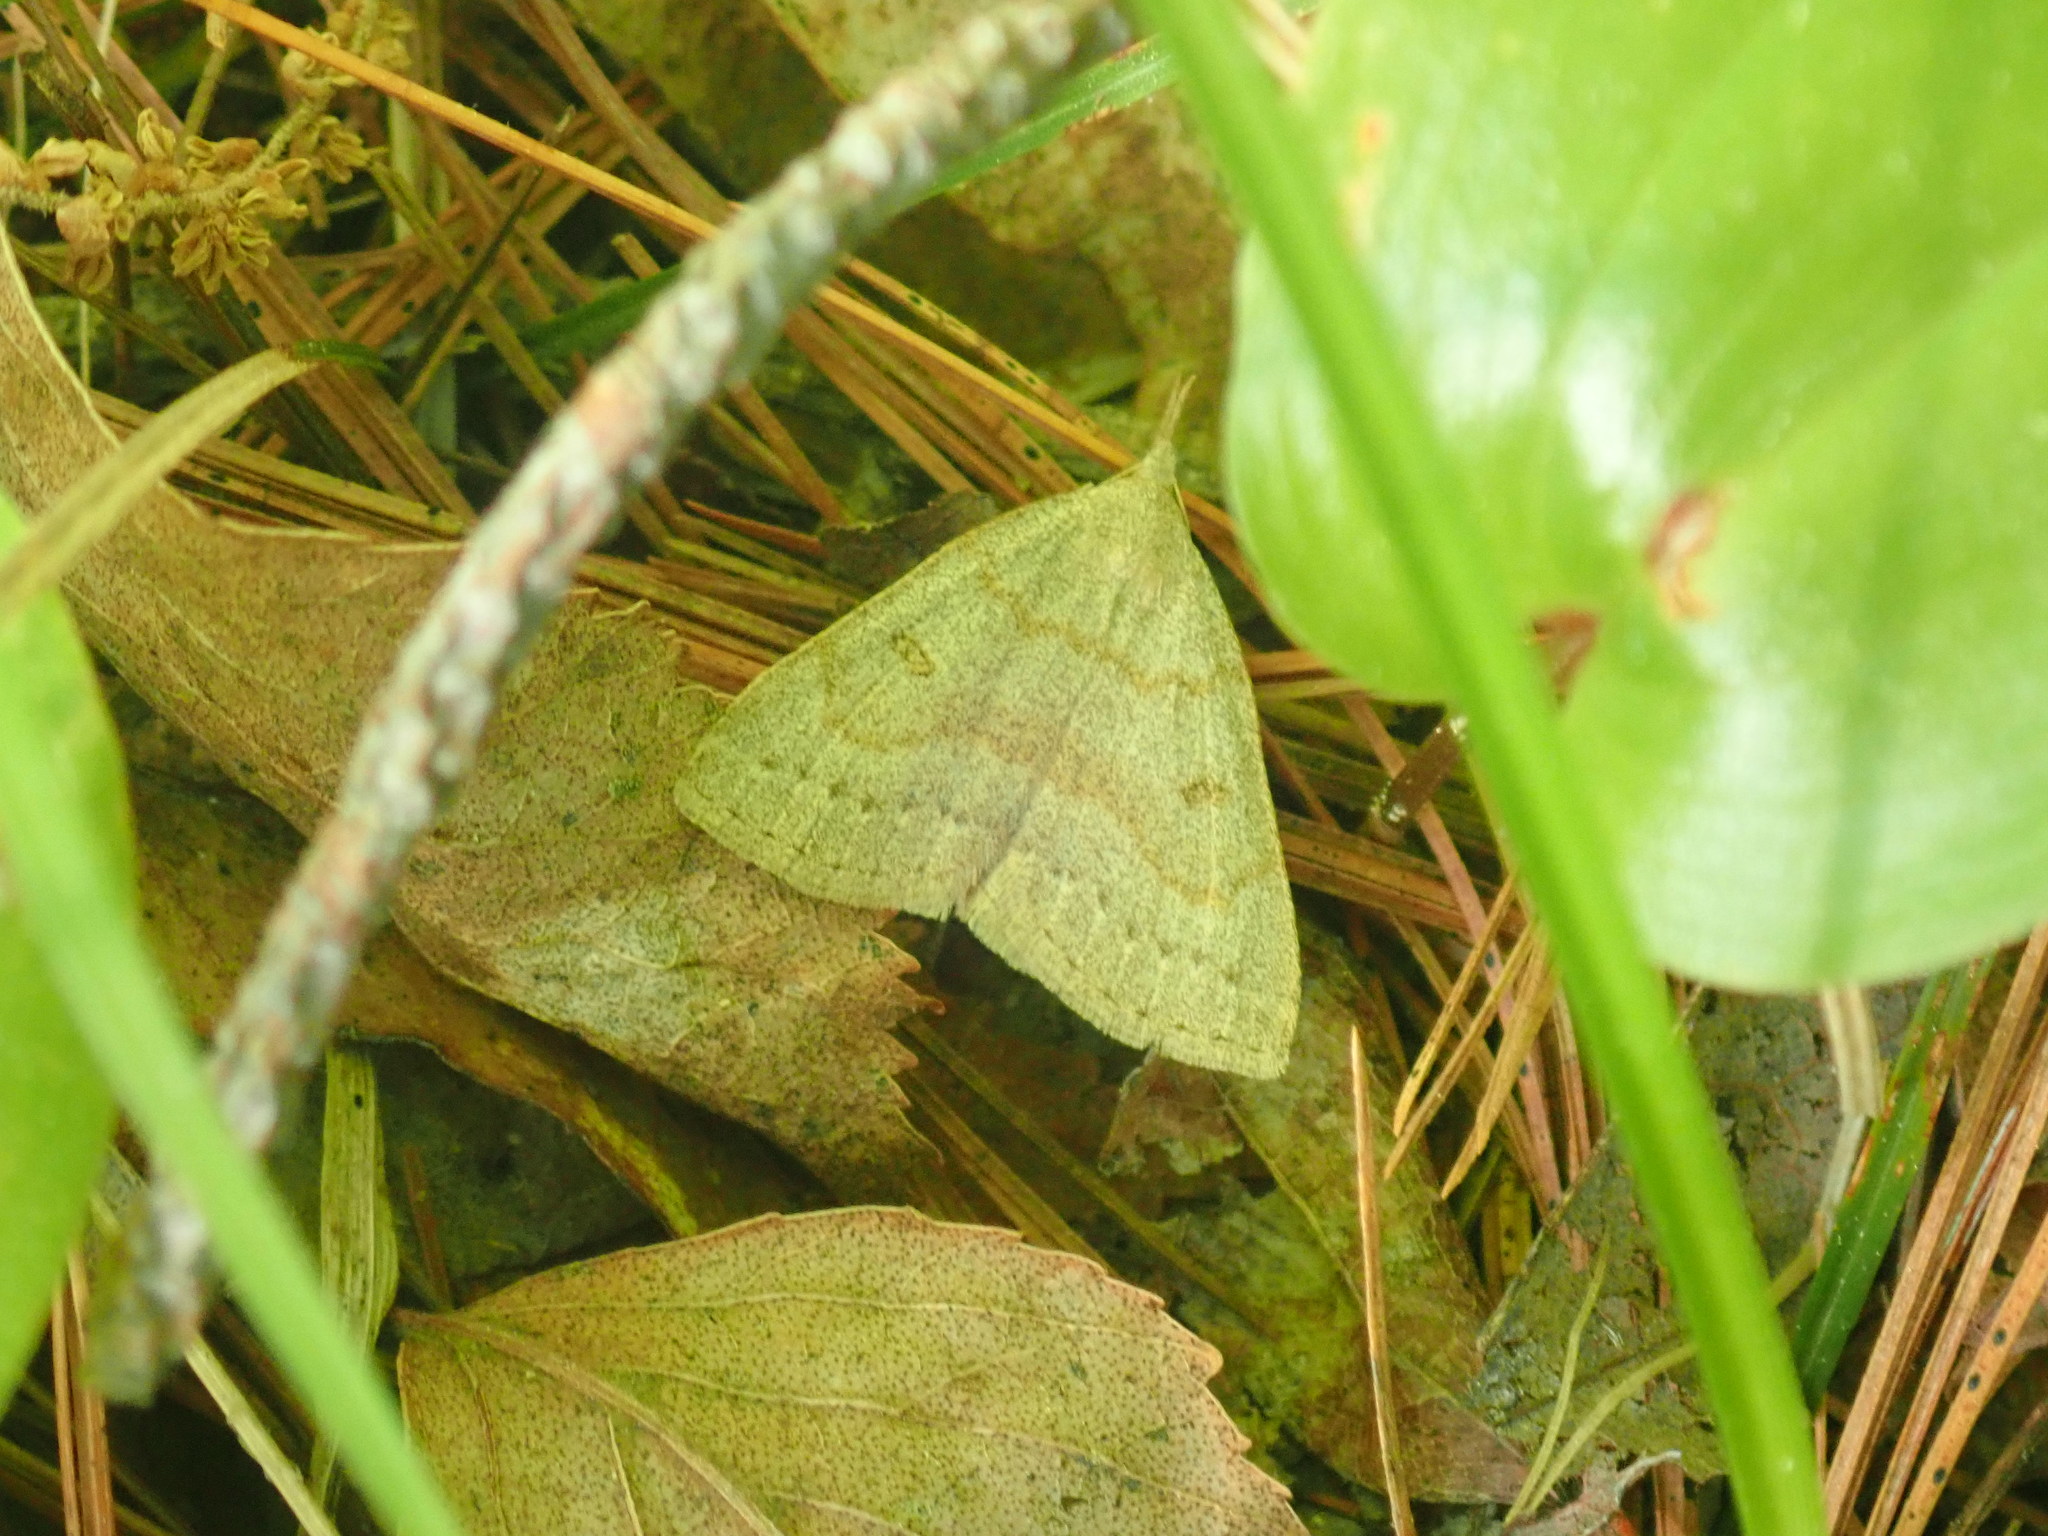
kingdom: Animalia
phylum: Arthropoda
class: Insecta
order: Lepidoptera
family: Erebidae
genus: Macrochilo
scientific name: Macrochilo morbidalis
